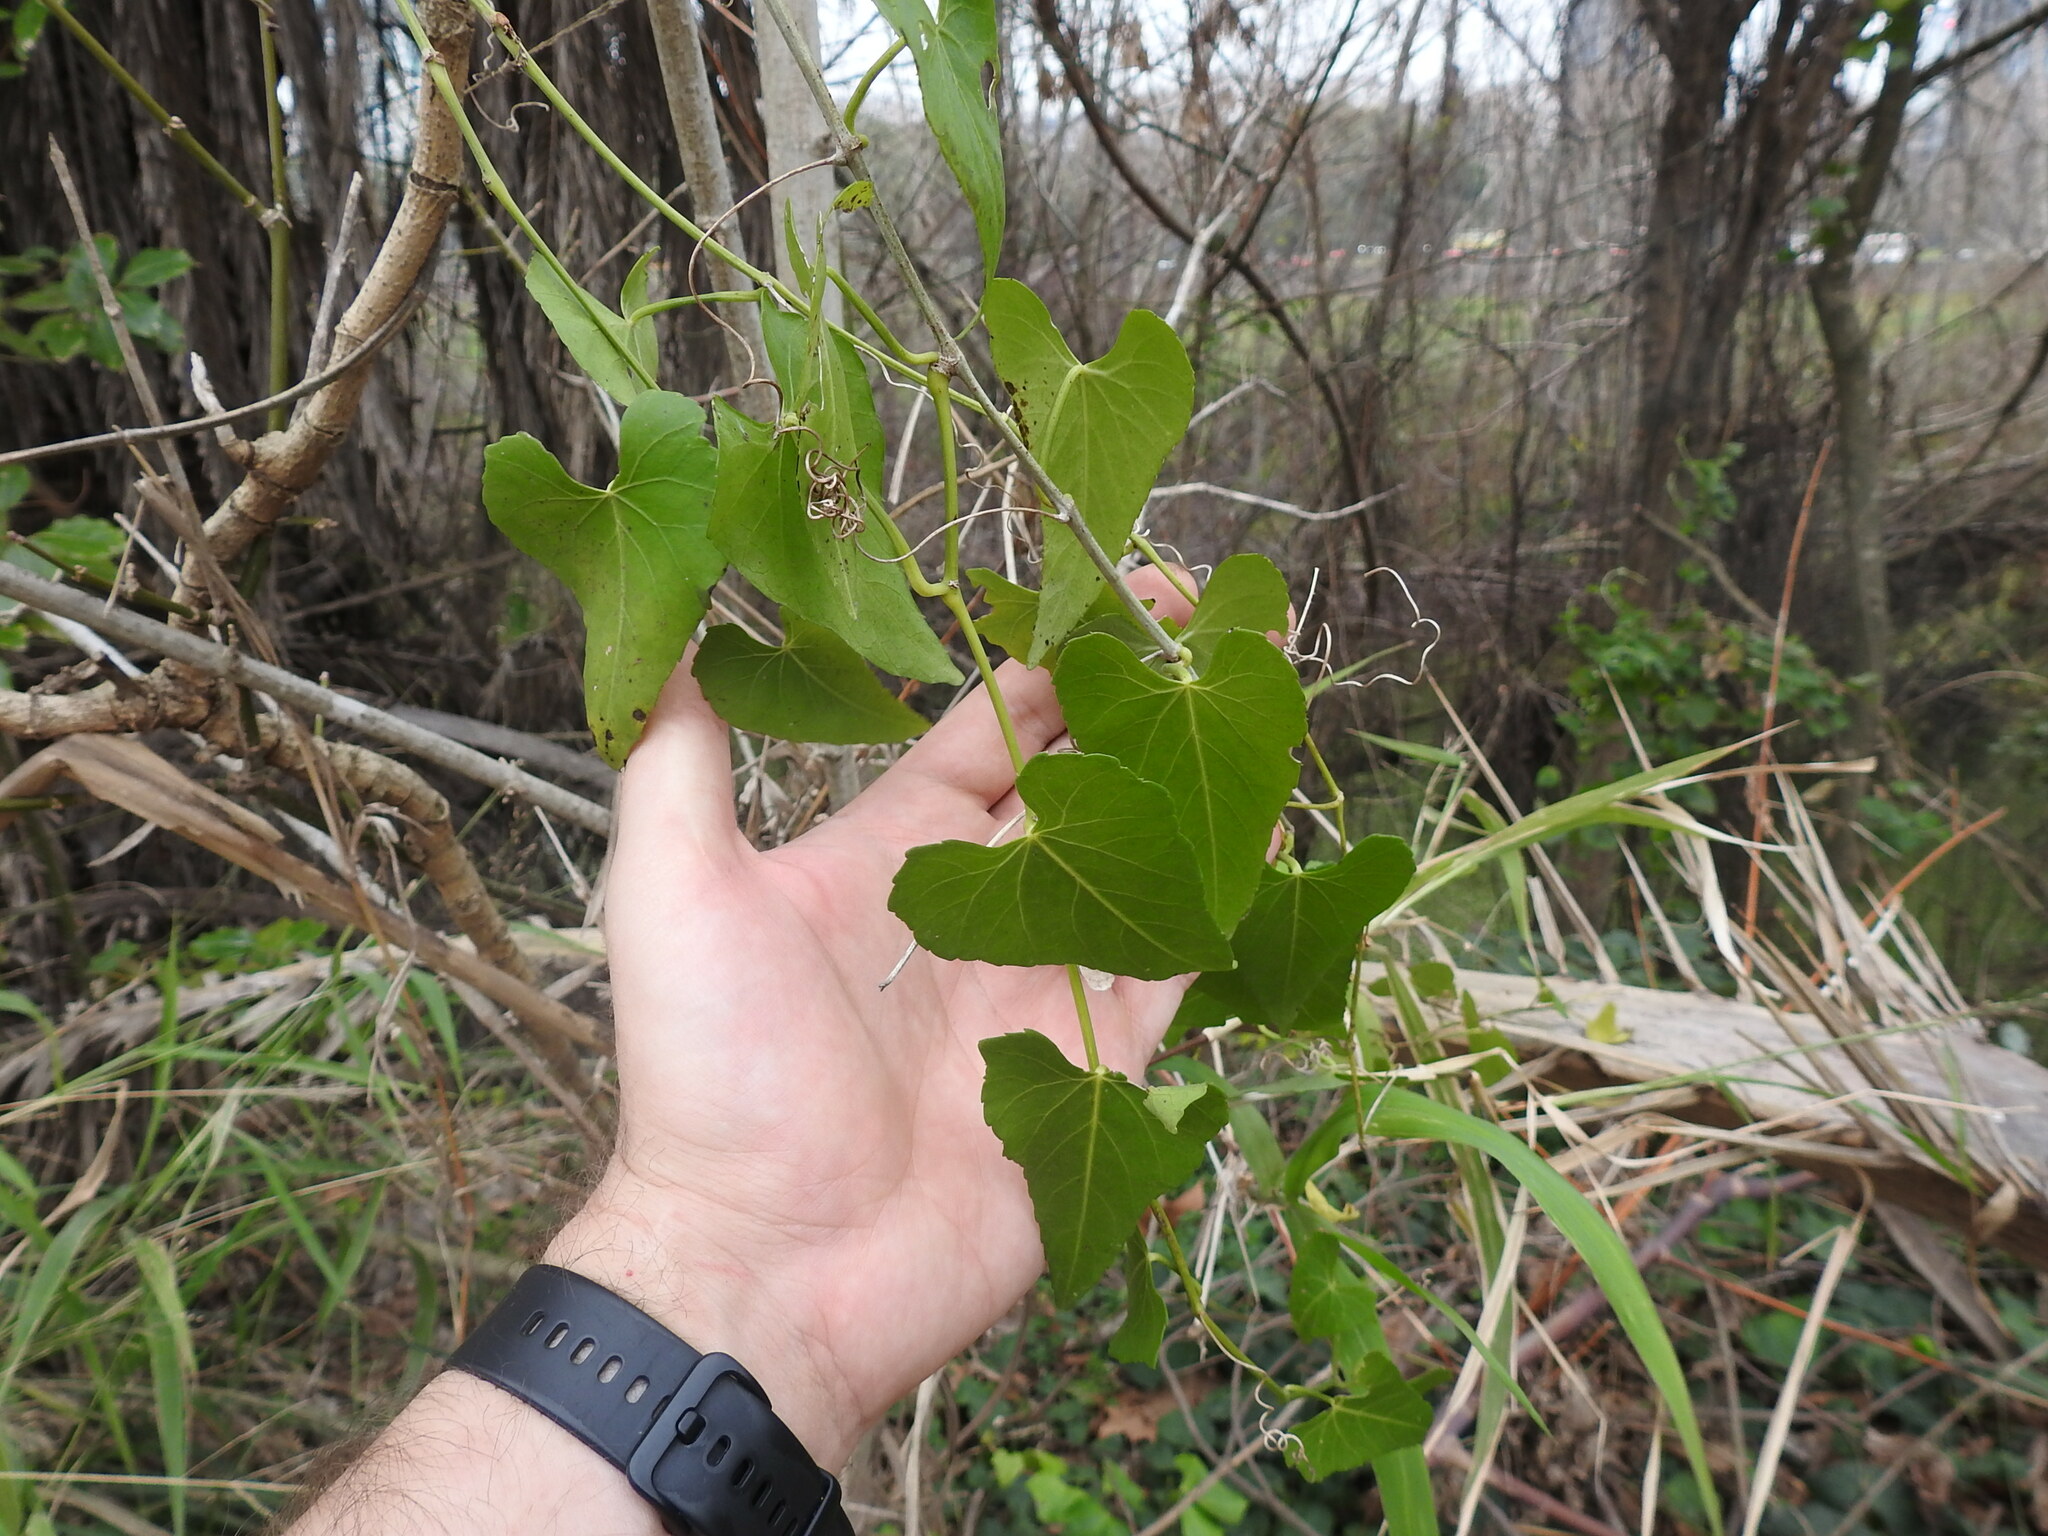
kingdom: Plantae
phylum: Tracheophyta
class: Magnoliopsida
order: Vitales
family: Vitaceae
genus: Cissus
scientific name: Cissus verticillata
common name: Princess vine
